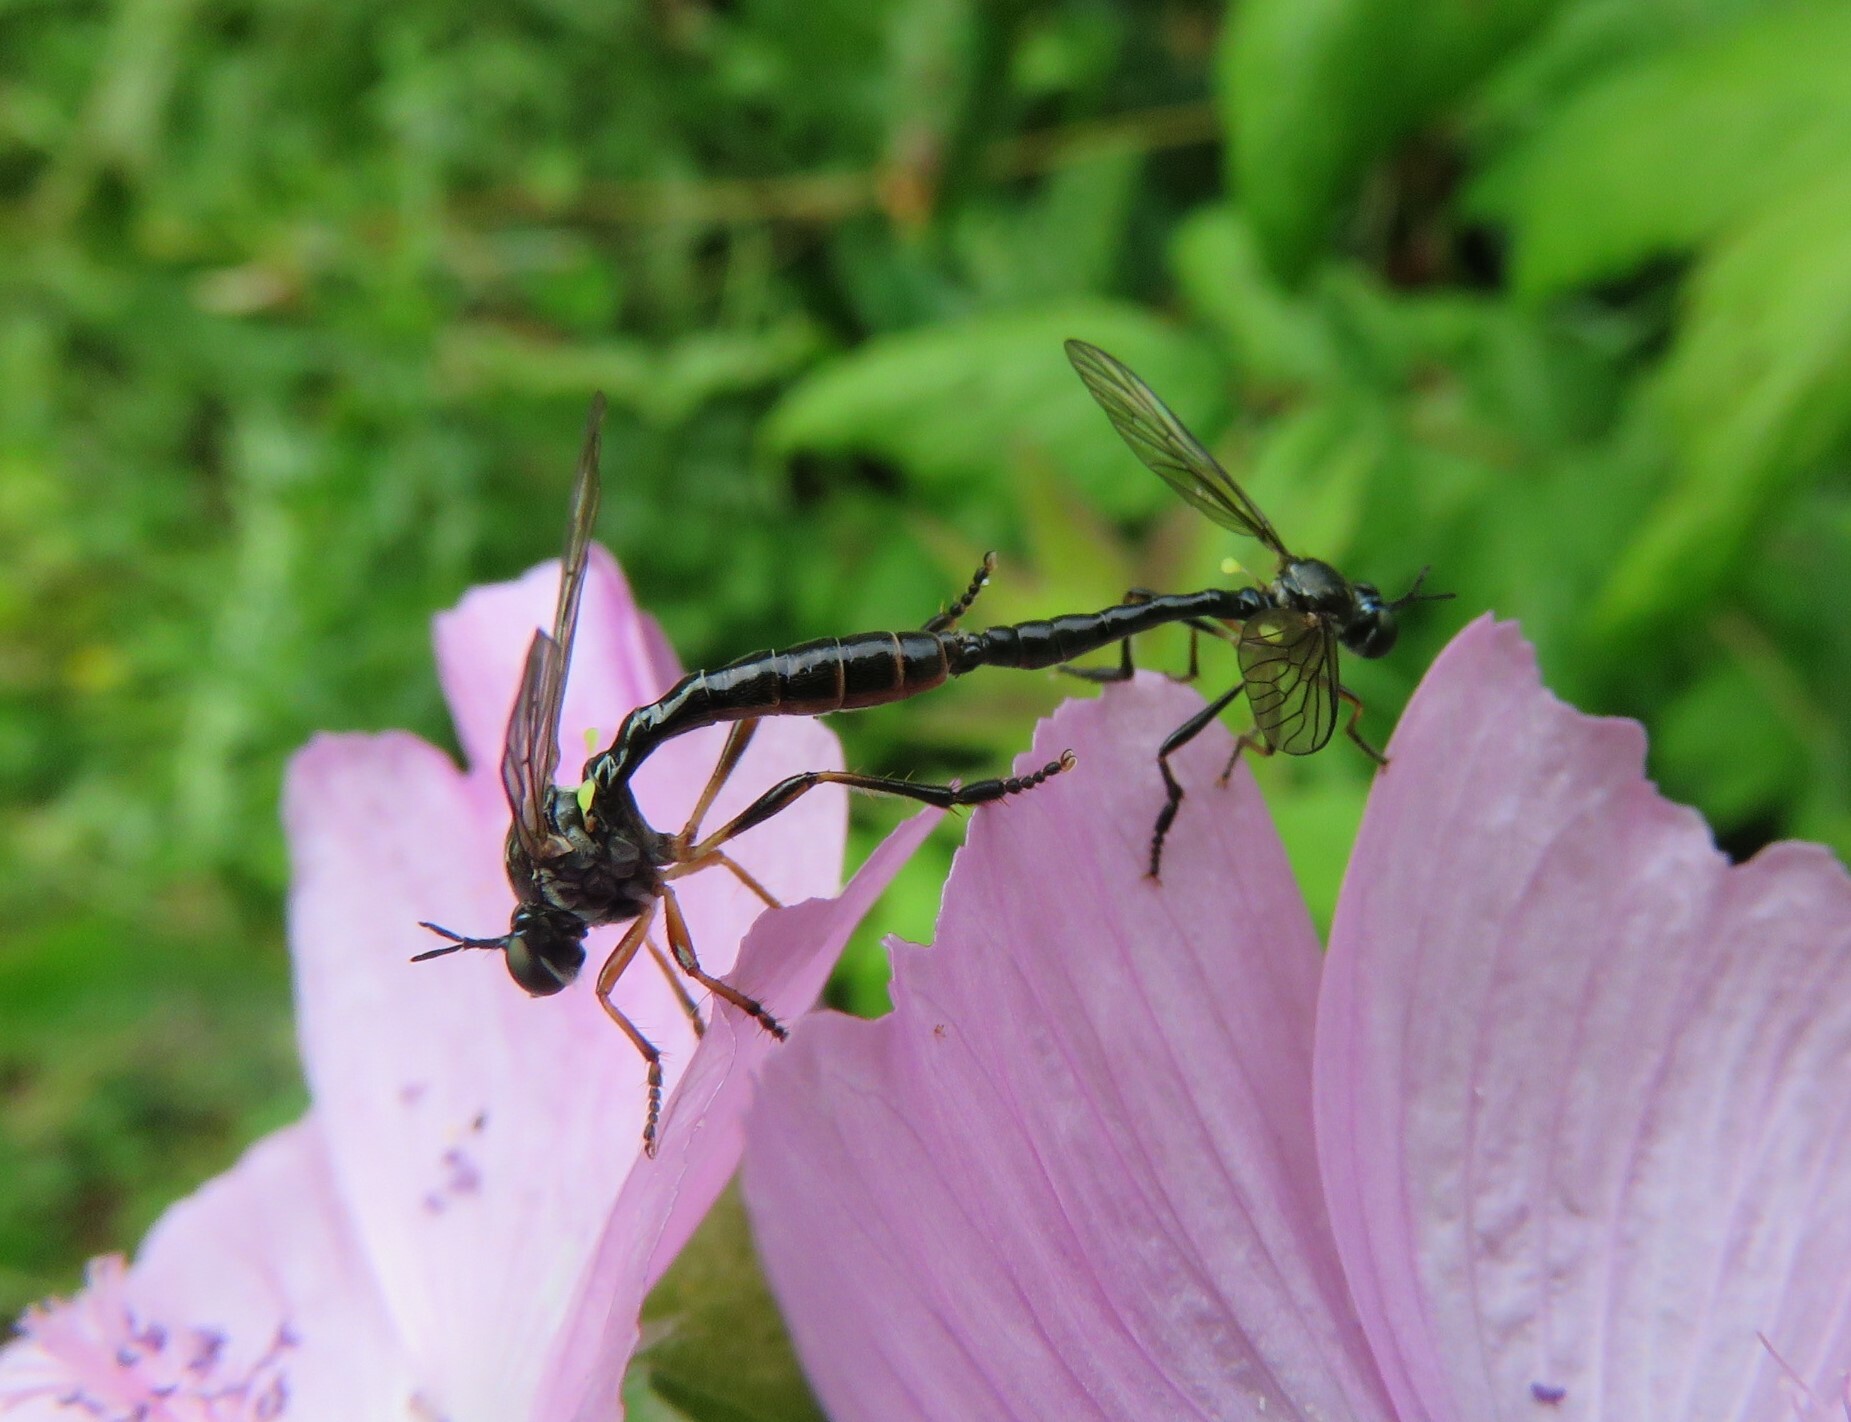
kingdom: Animalia
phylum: Arthropoda
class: Insecta
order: Diptera
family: Asilidae
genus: Dioctria
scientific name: Dioctria hyalipennis
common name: Stripe-legged robberfly
